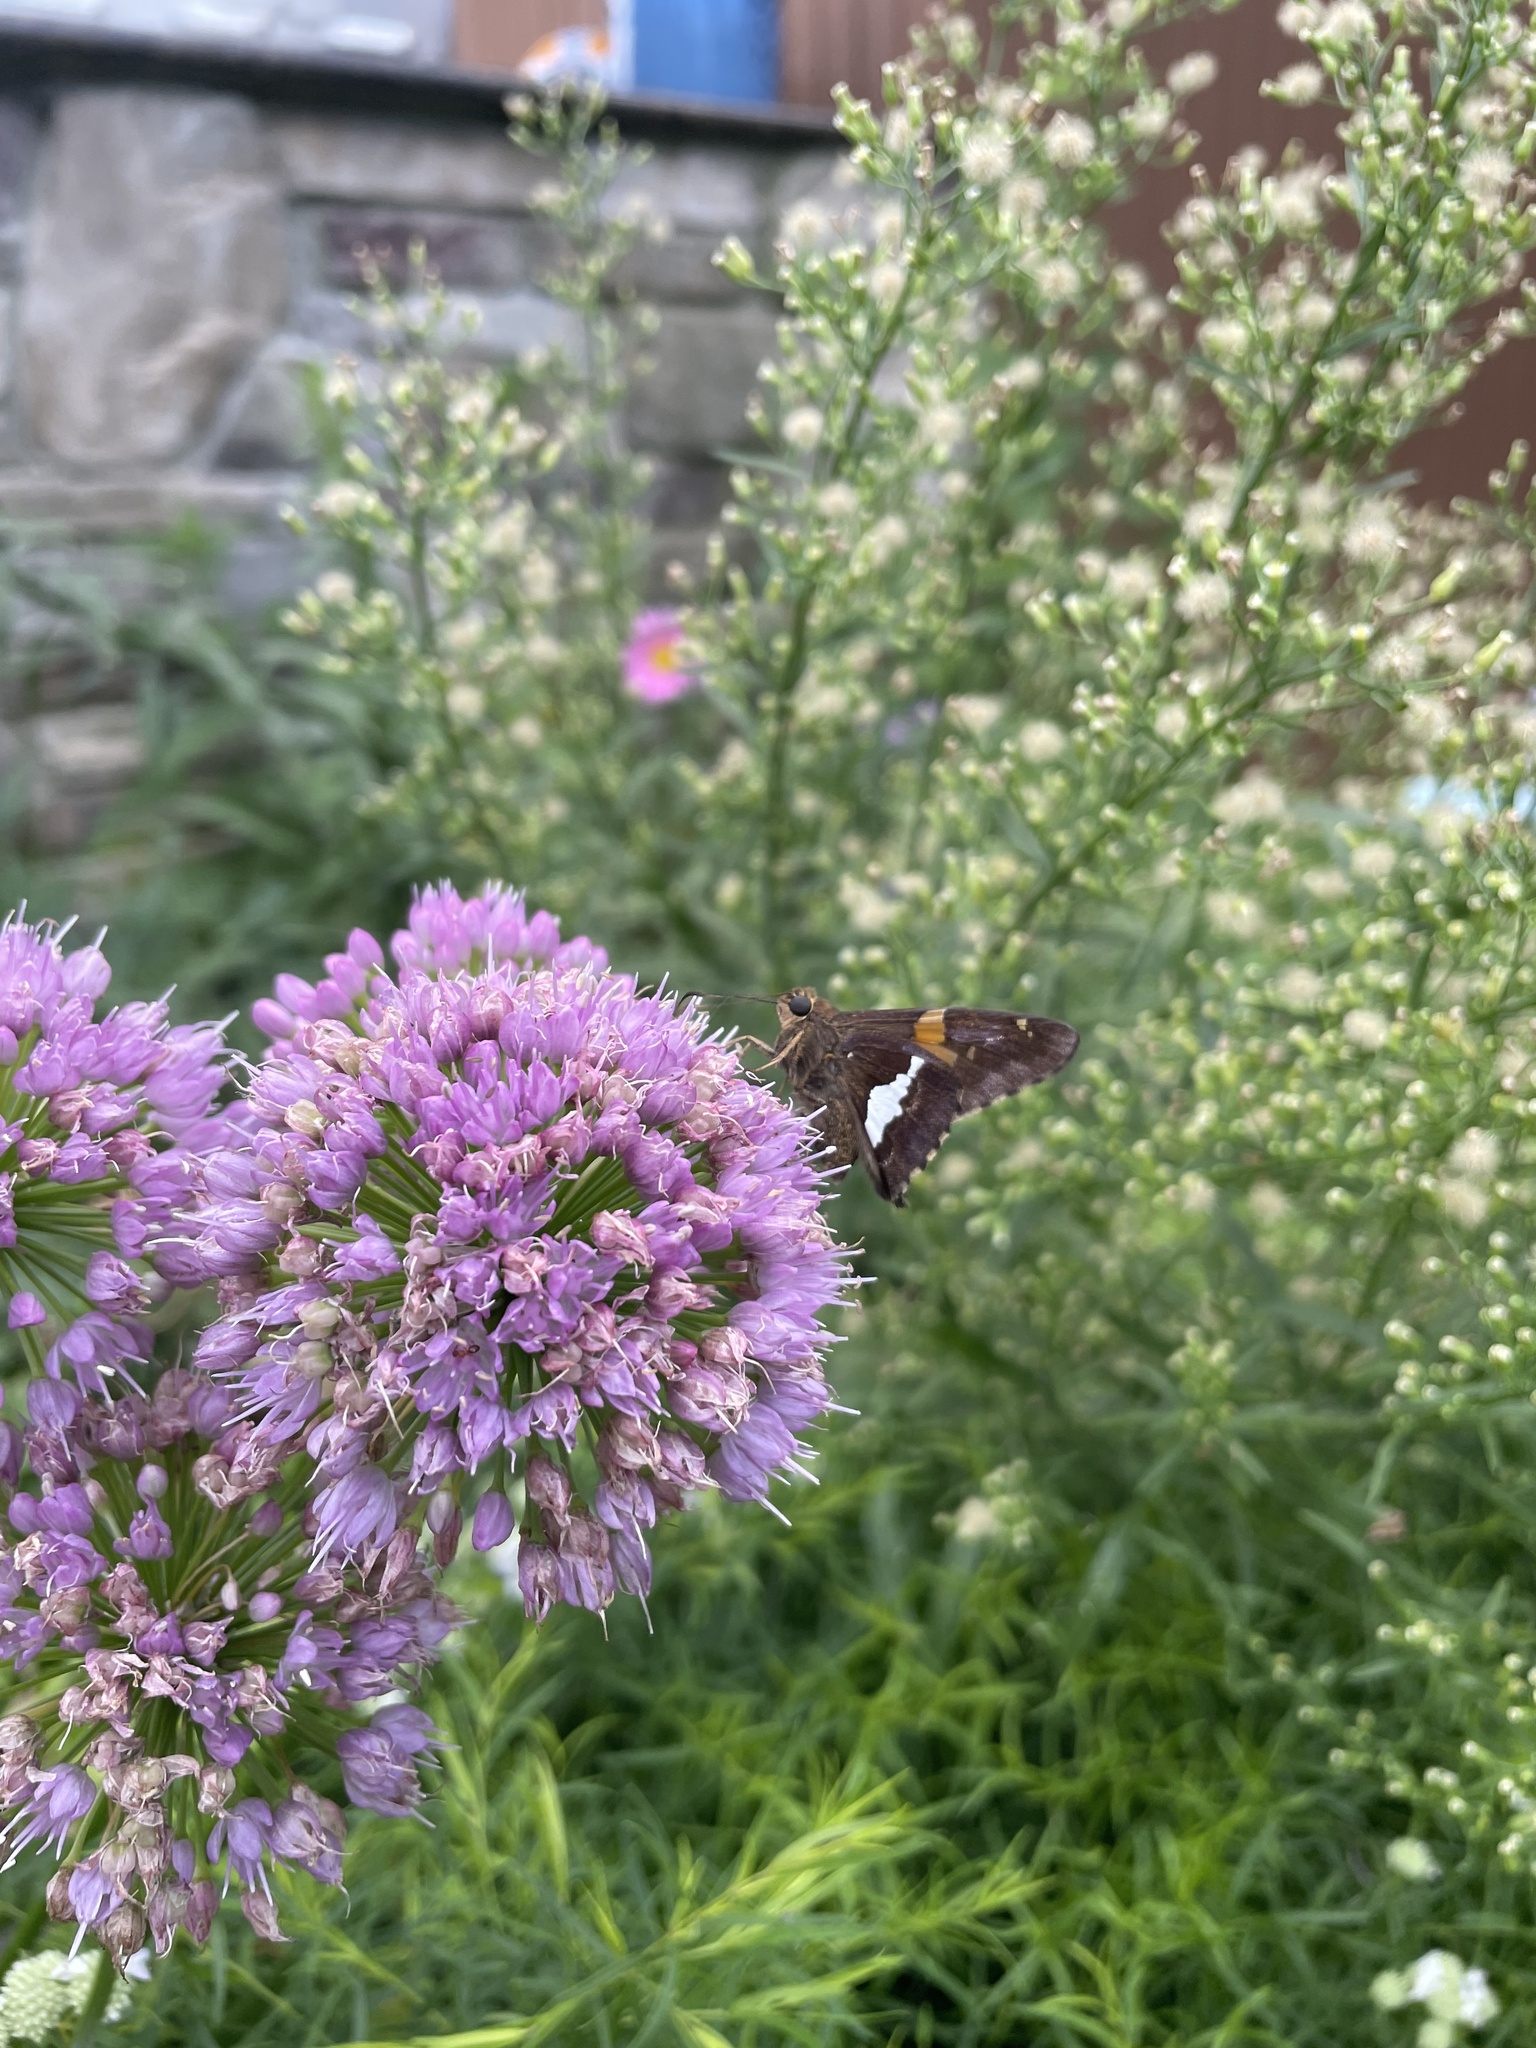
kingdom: Animalia
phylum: Arthropoda
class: Insecta
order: Lepidoptera
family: Hesperiidae
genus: Epargyreus
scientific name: Epargyreus clarus
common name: Silver-spotted skipper
